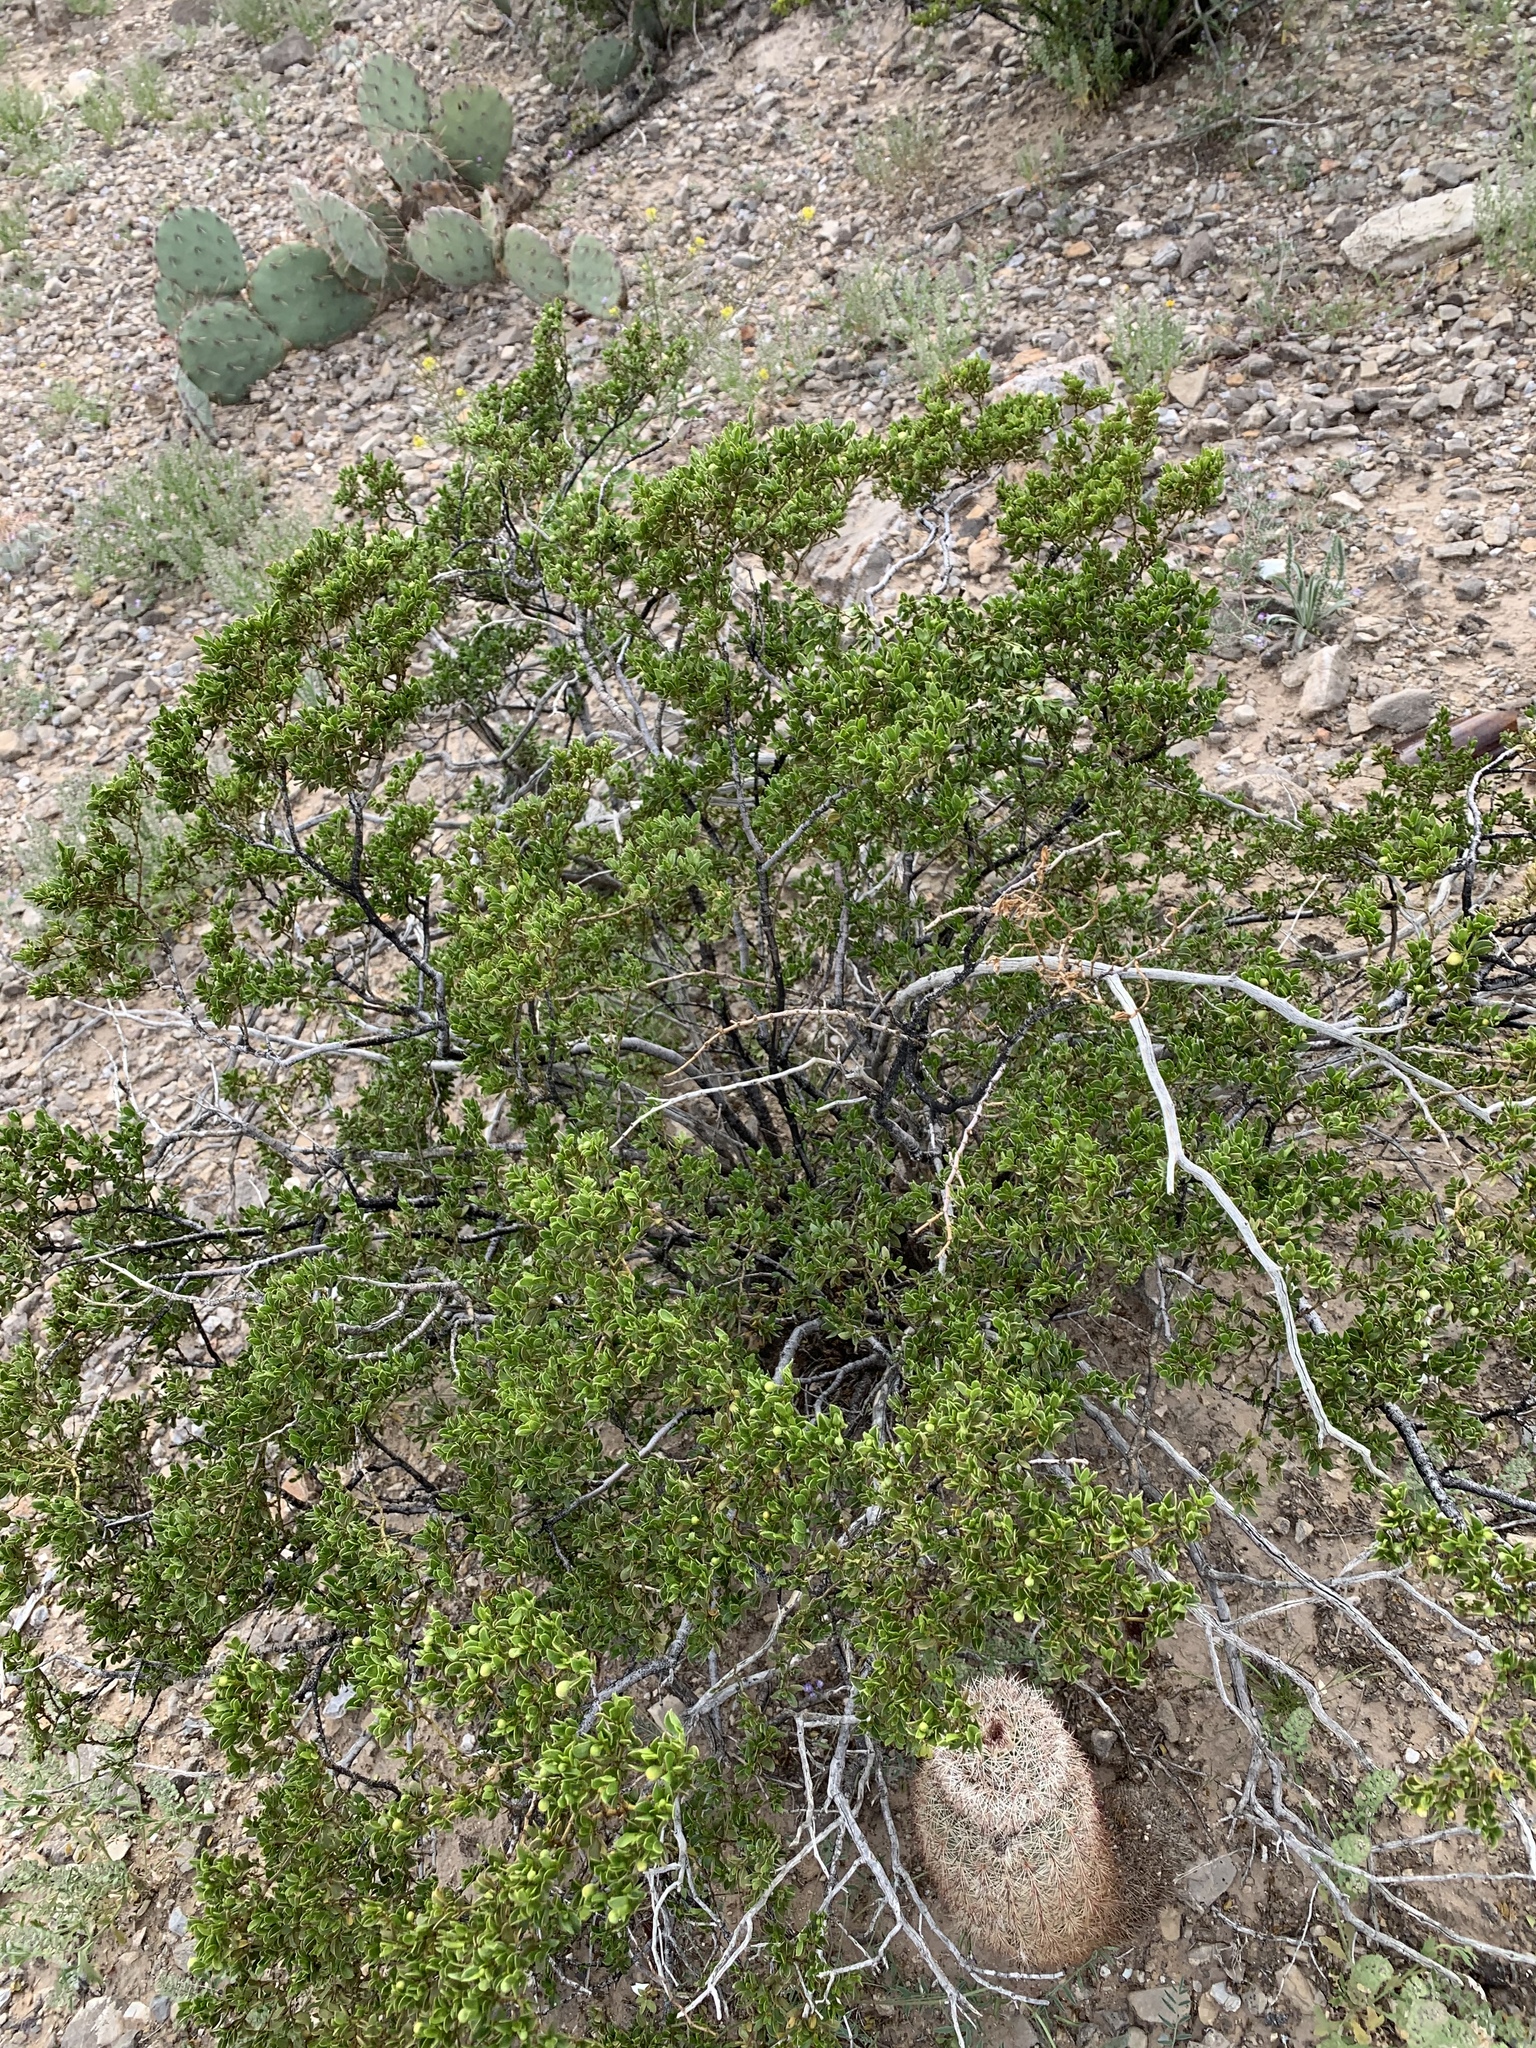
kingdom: Plantae
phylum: Tracheophyta
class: Magnoliopsida
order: Zygophyllales
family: Zygophyllaceae
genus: Larrea
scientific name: Larrea tridentata
